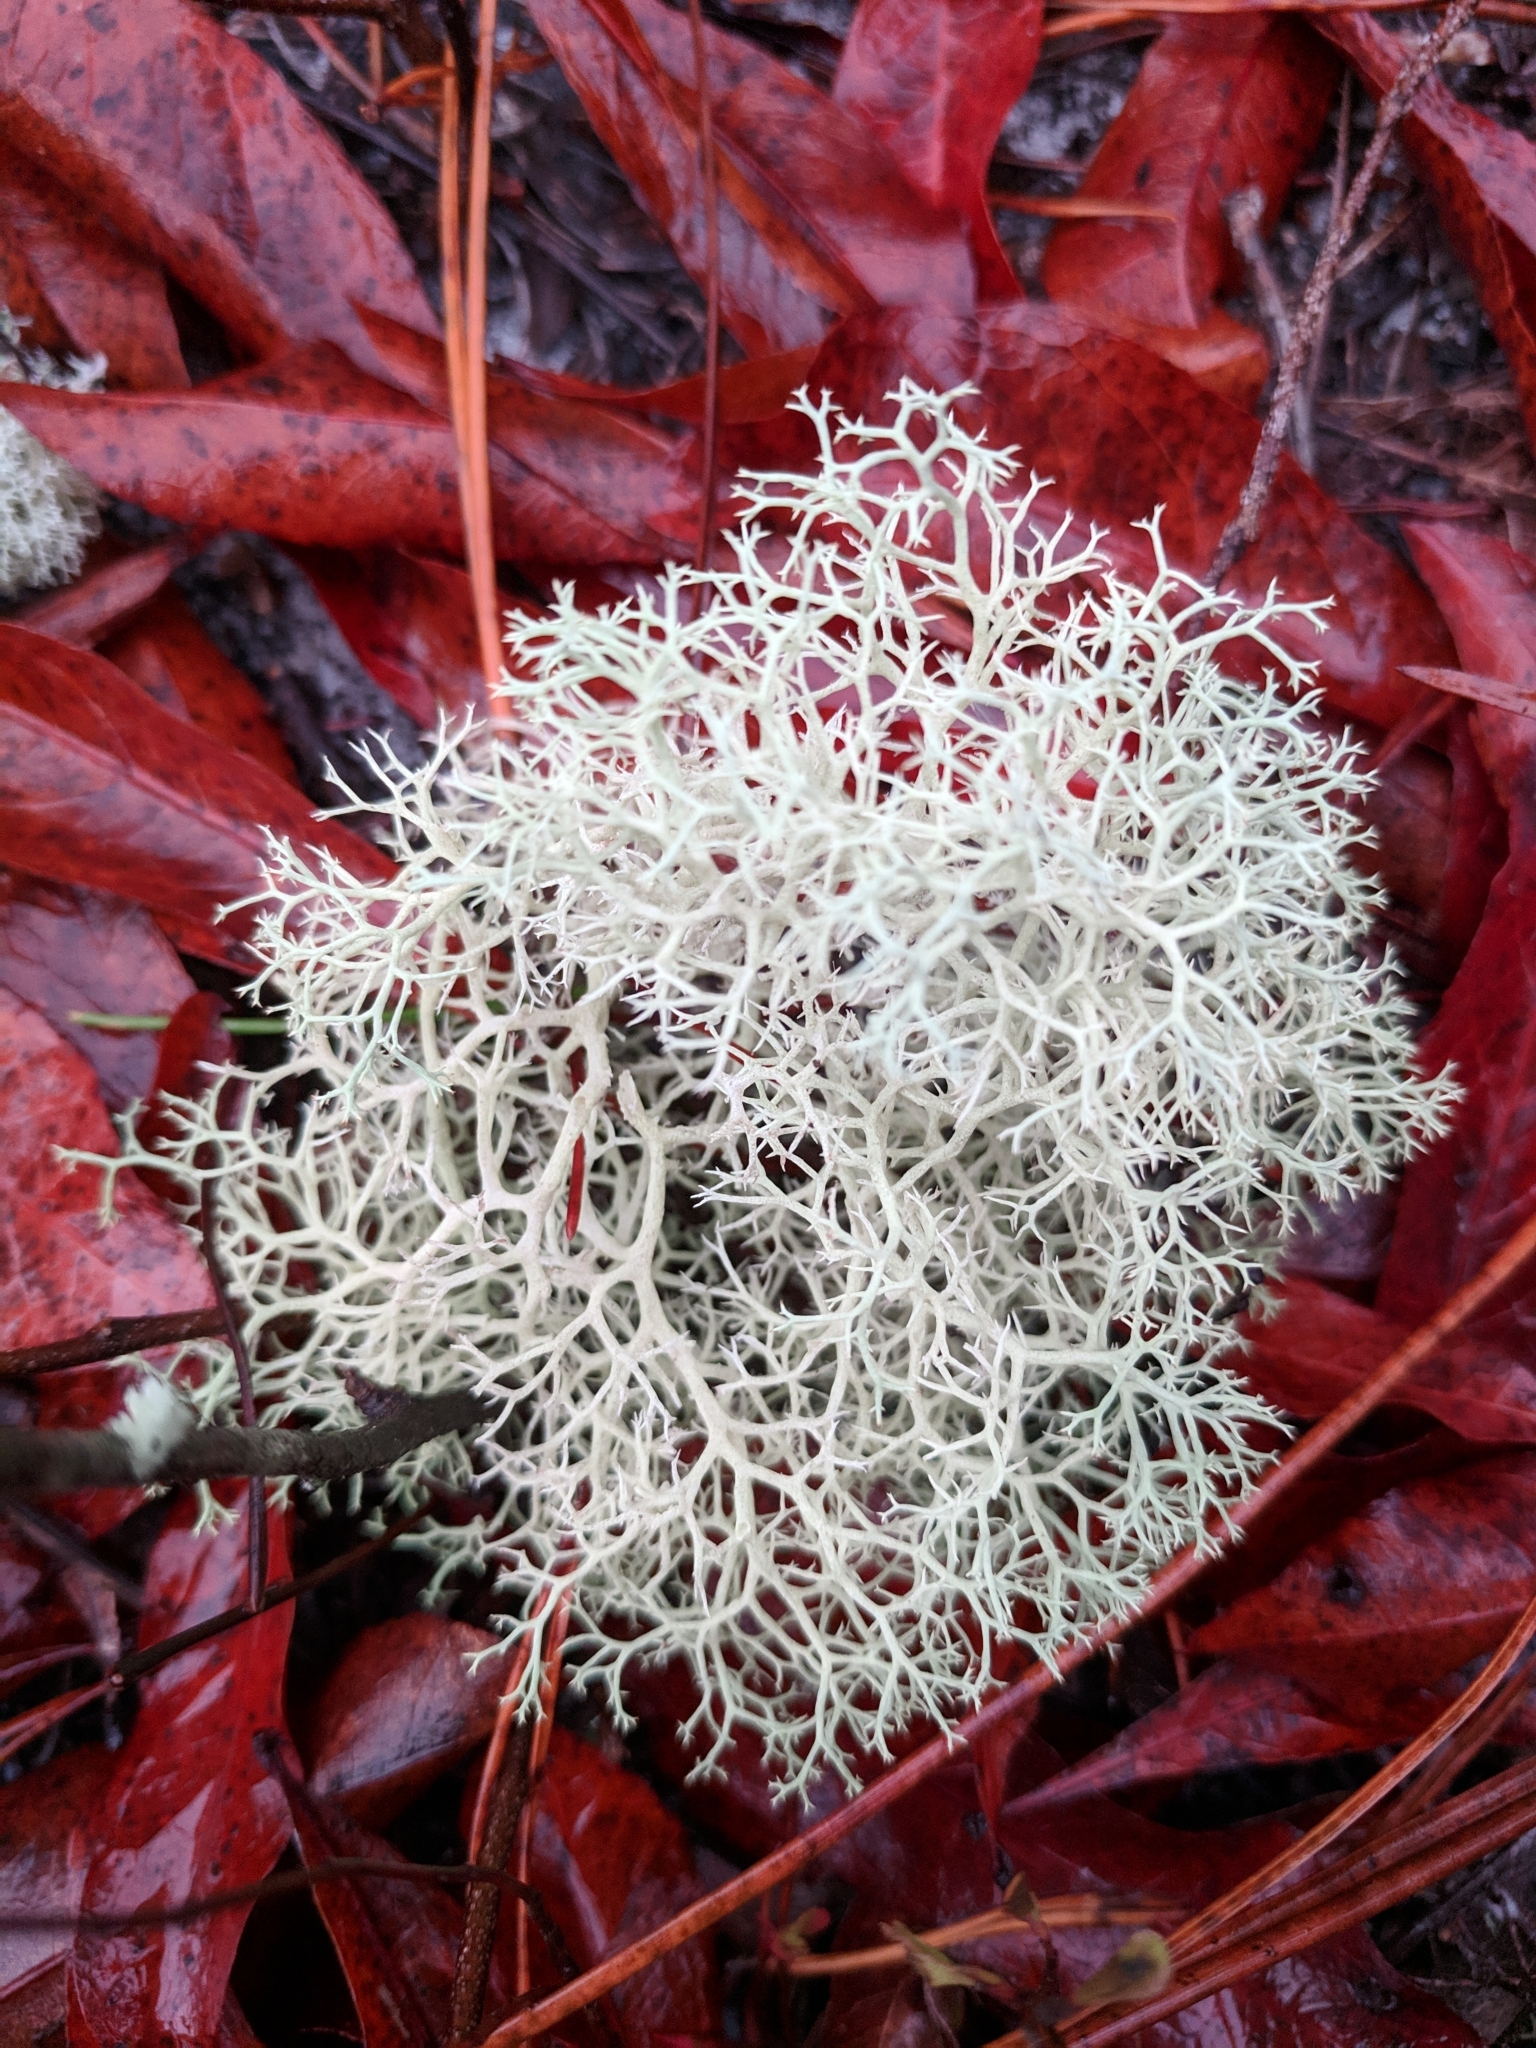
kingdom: Fungi
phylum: Ascomycota
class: Lecanoromycetes
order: Lecanorales
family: Cladoniaceae
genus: Cladonia
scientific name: Cladonia evansii
